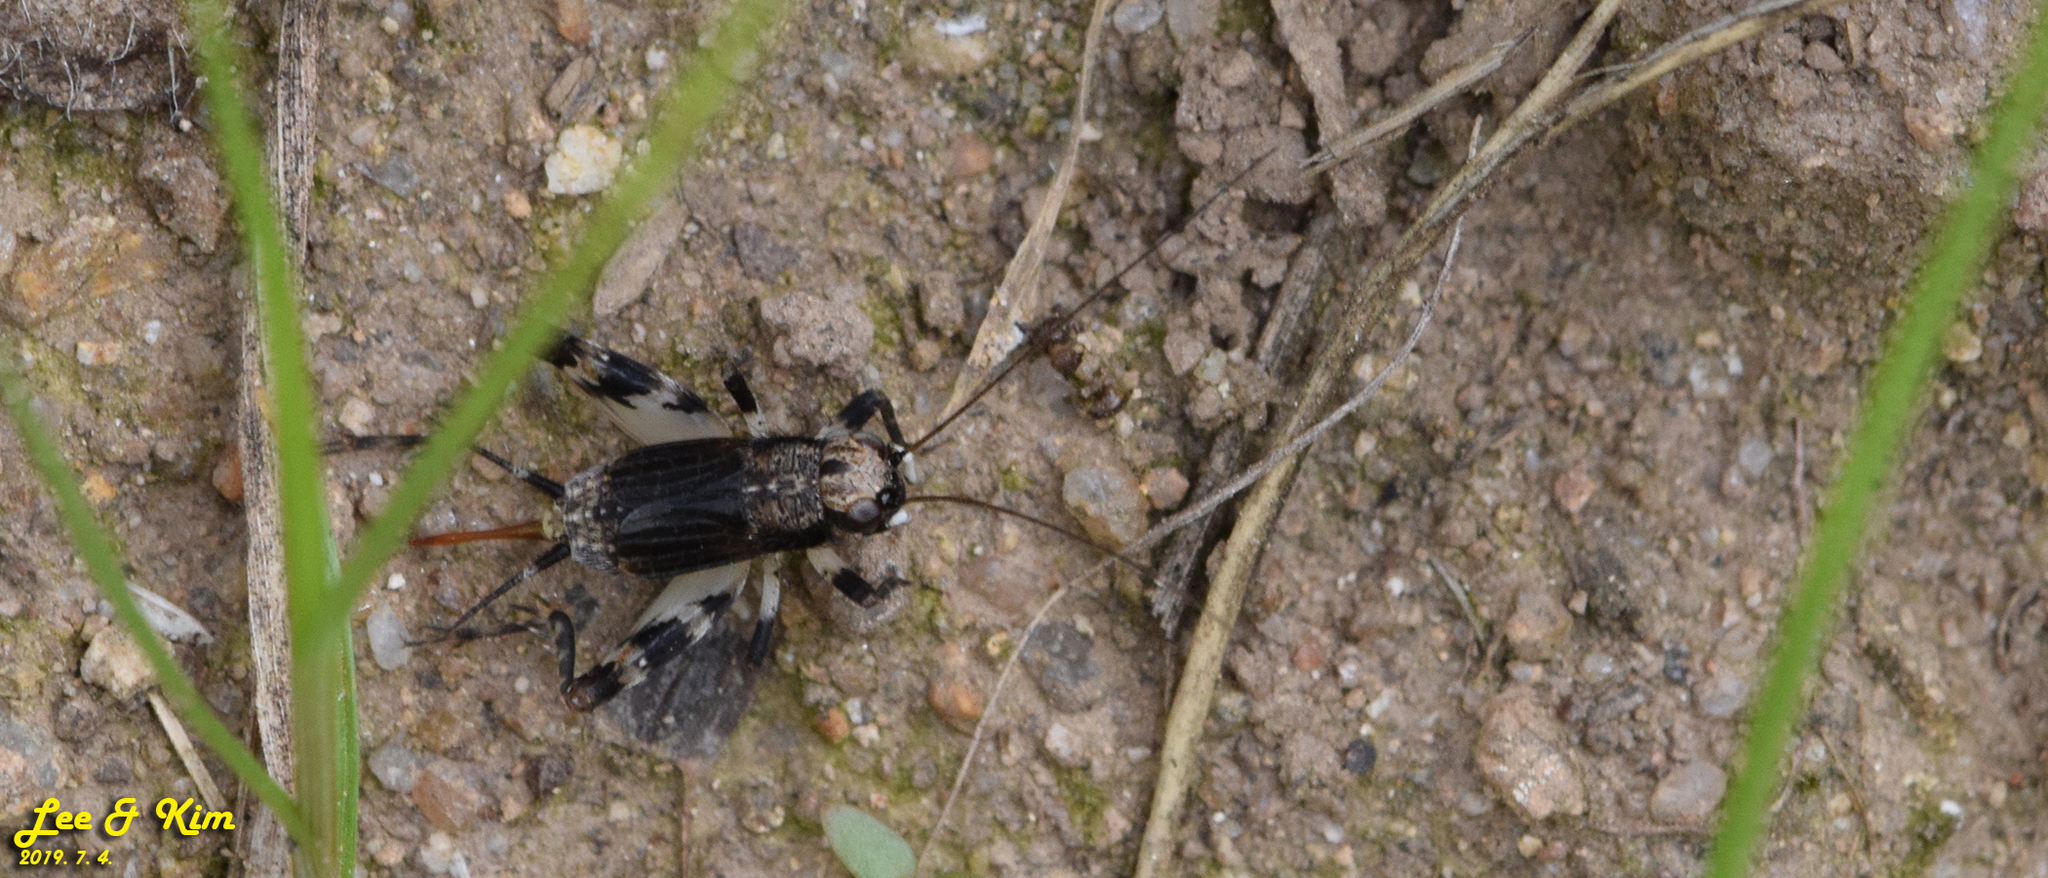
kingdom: Animalia
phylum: Arthropoda
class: Insecta
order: Orthoptera
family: Trigonidiidae
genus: Dianemobius
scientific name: Dianemobius fascipes
